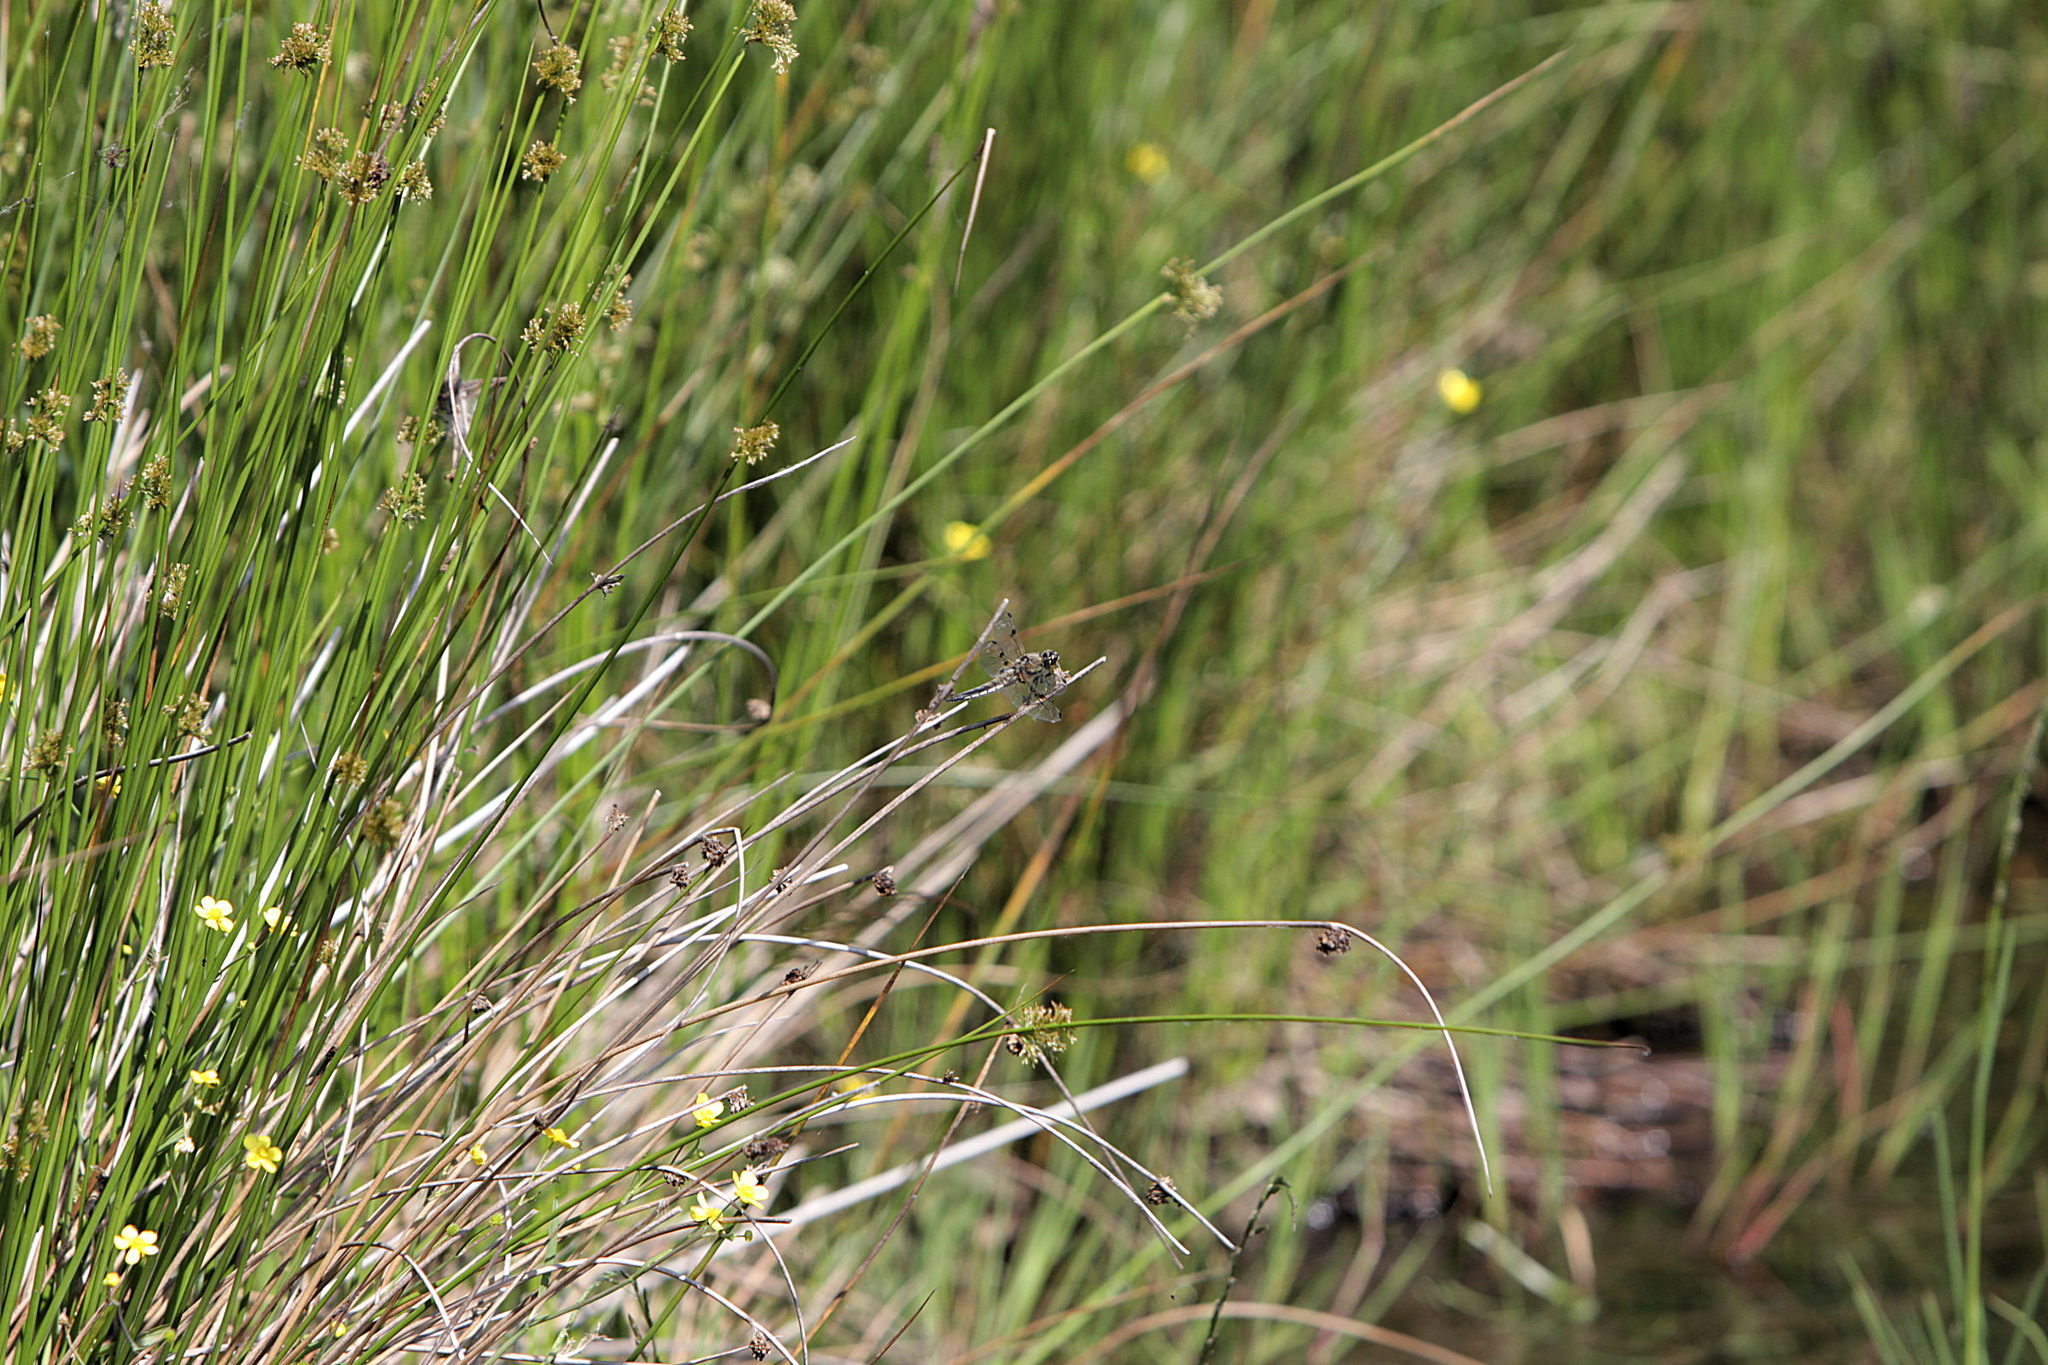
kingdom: Animalia
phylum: Arthropoda
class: Insecta
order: Odonata
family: Libellulidae
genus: Libellula
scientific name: Libellula quadrimaculata
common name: Four-spotted chaser
